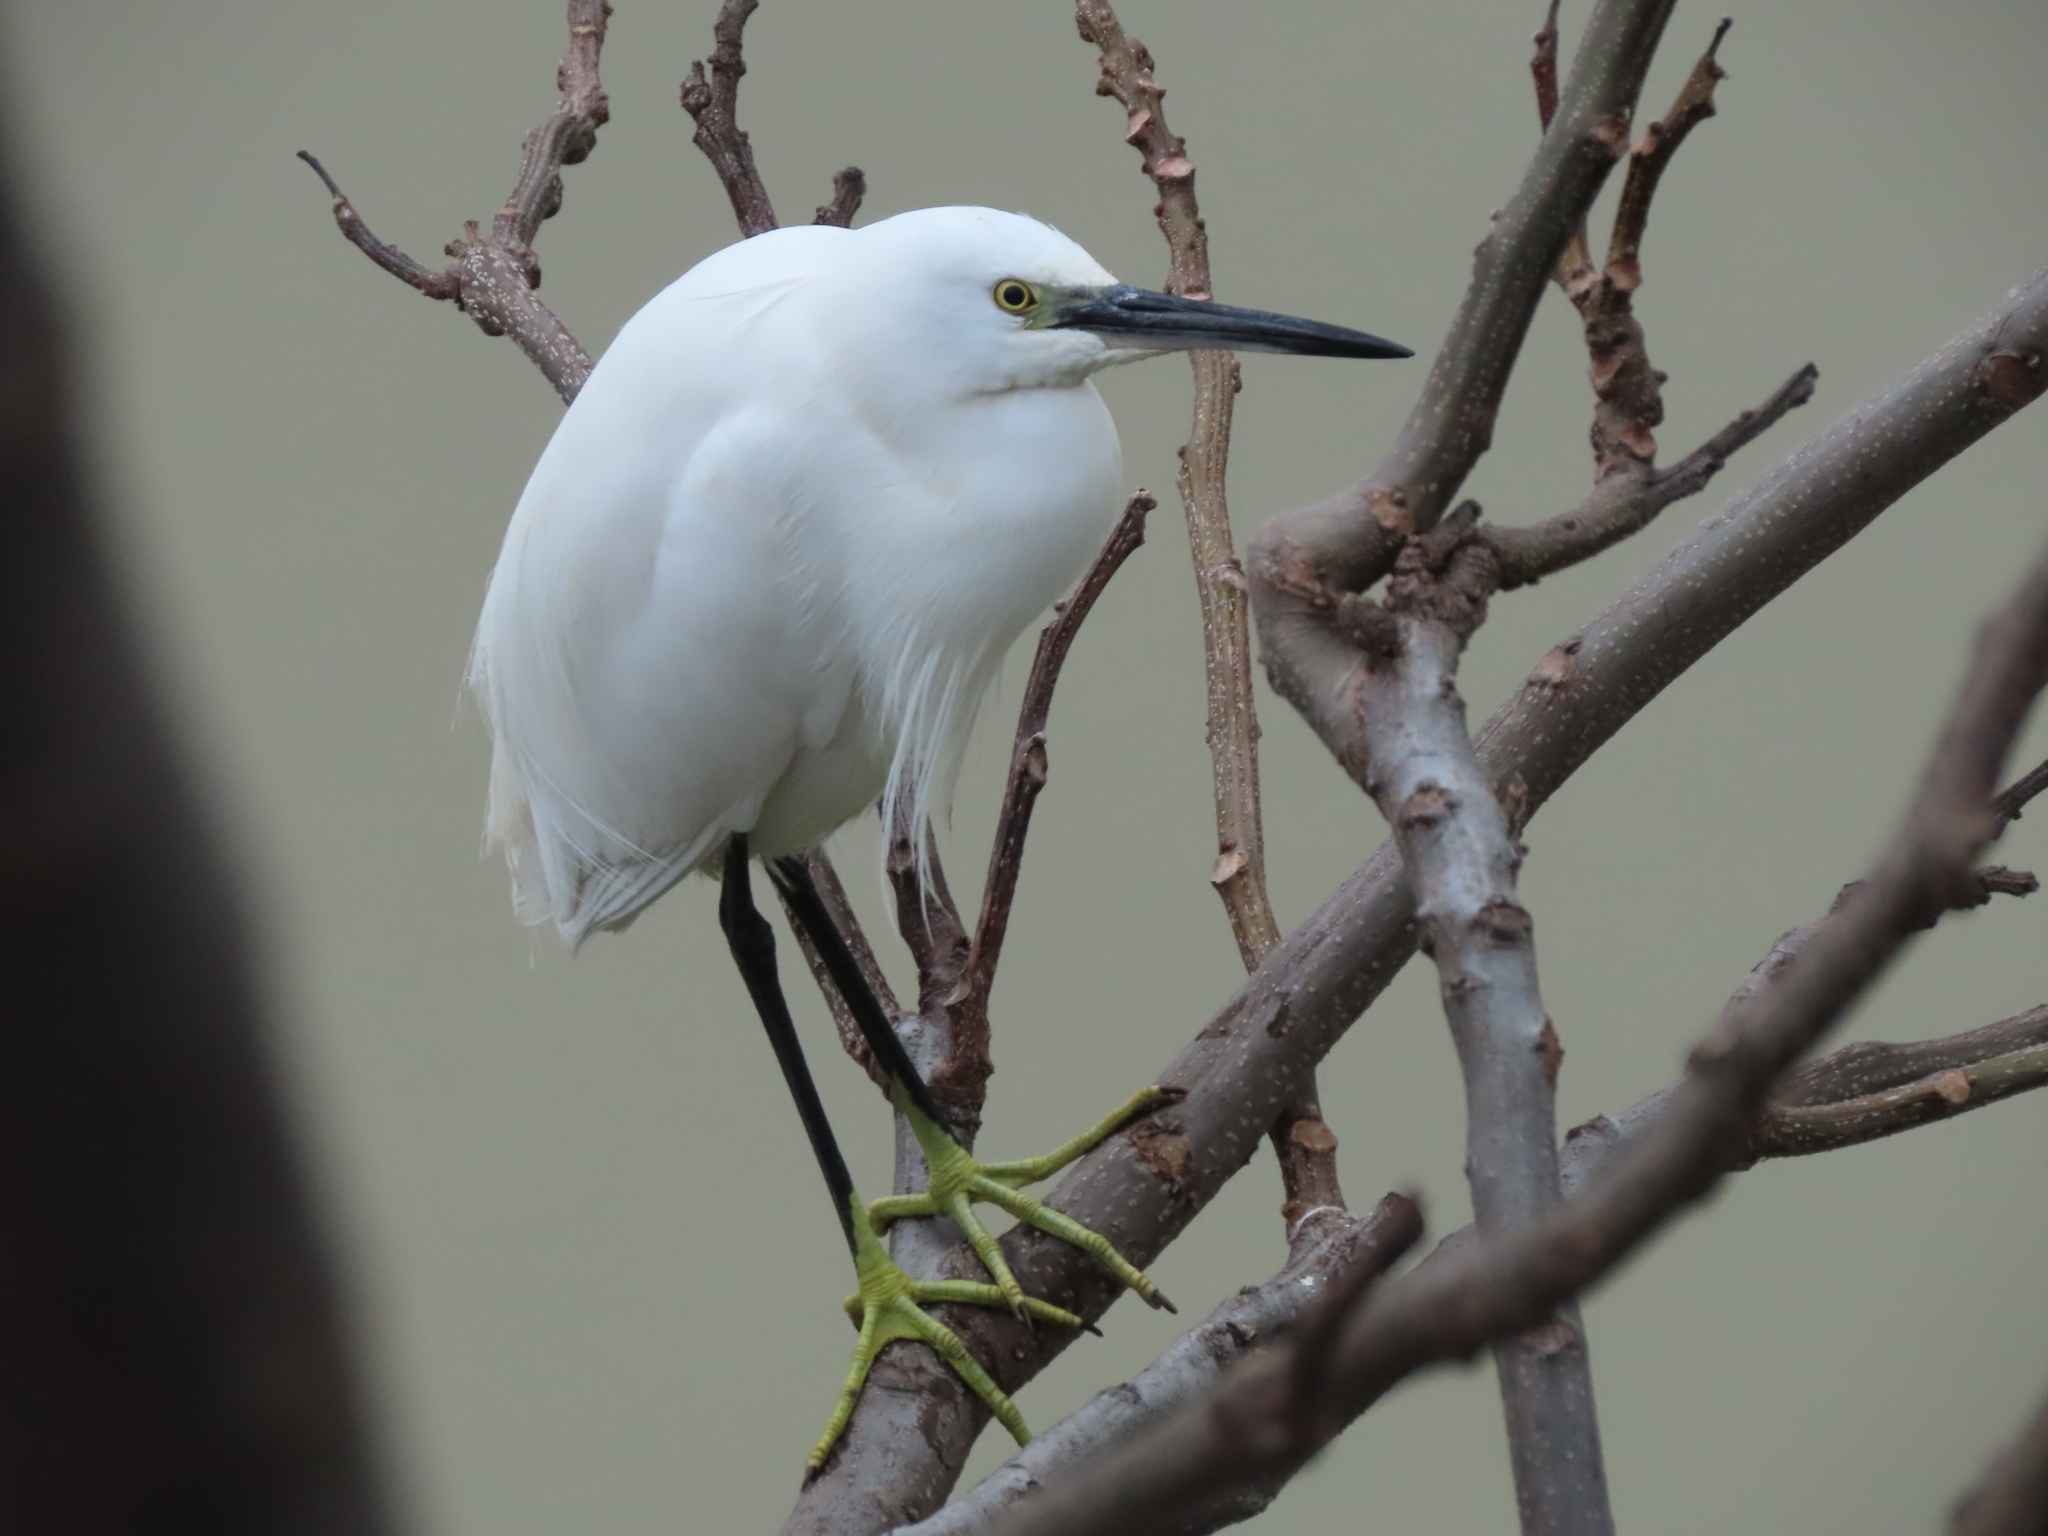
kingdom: Animalia
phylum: Chordata
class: Aves
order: Pelecaniformes
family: Ardeidae
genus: Egretta
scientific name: Egretta garzetta
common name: Little egret
